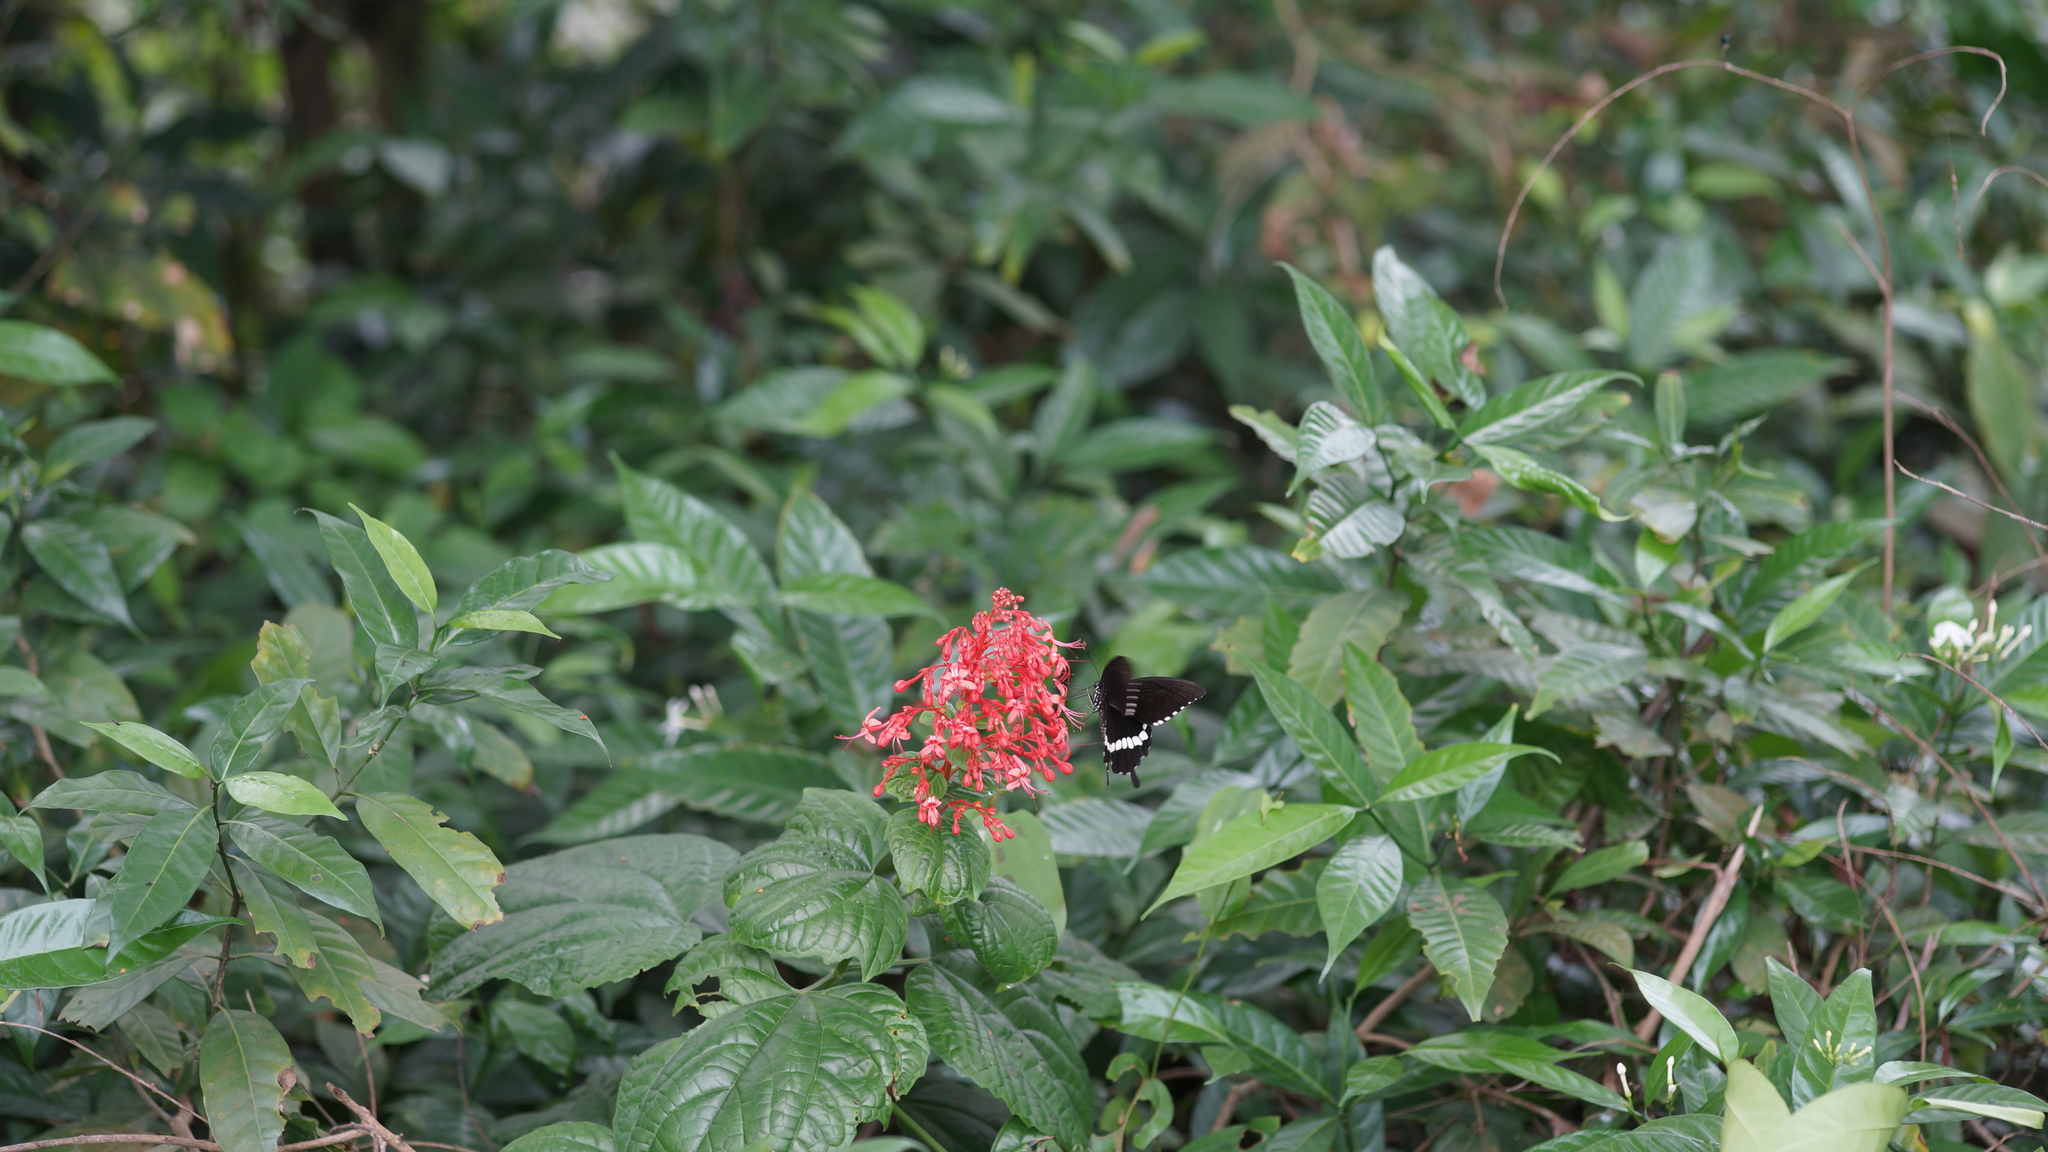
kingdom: Animalia
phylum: Arthropoda
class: Insecta
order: Lepidoptera
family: Papilionidae
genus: Papilio
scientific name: Papilio polytes
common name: Common mormon
